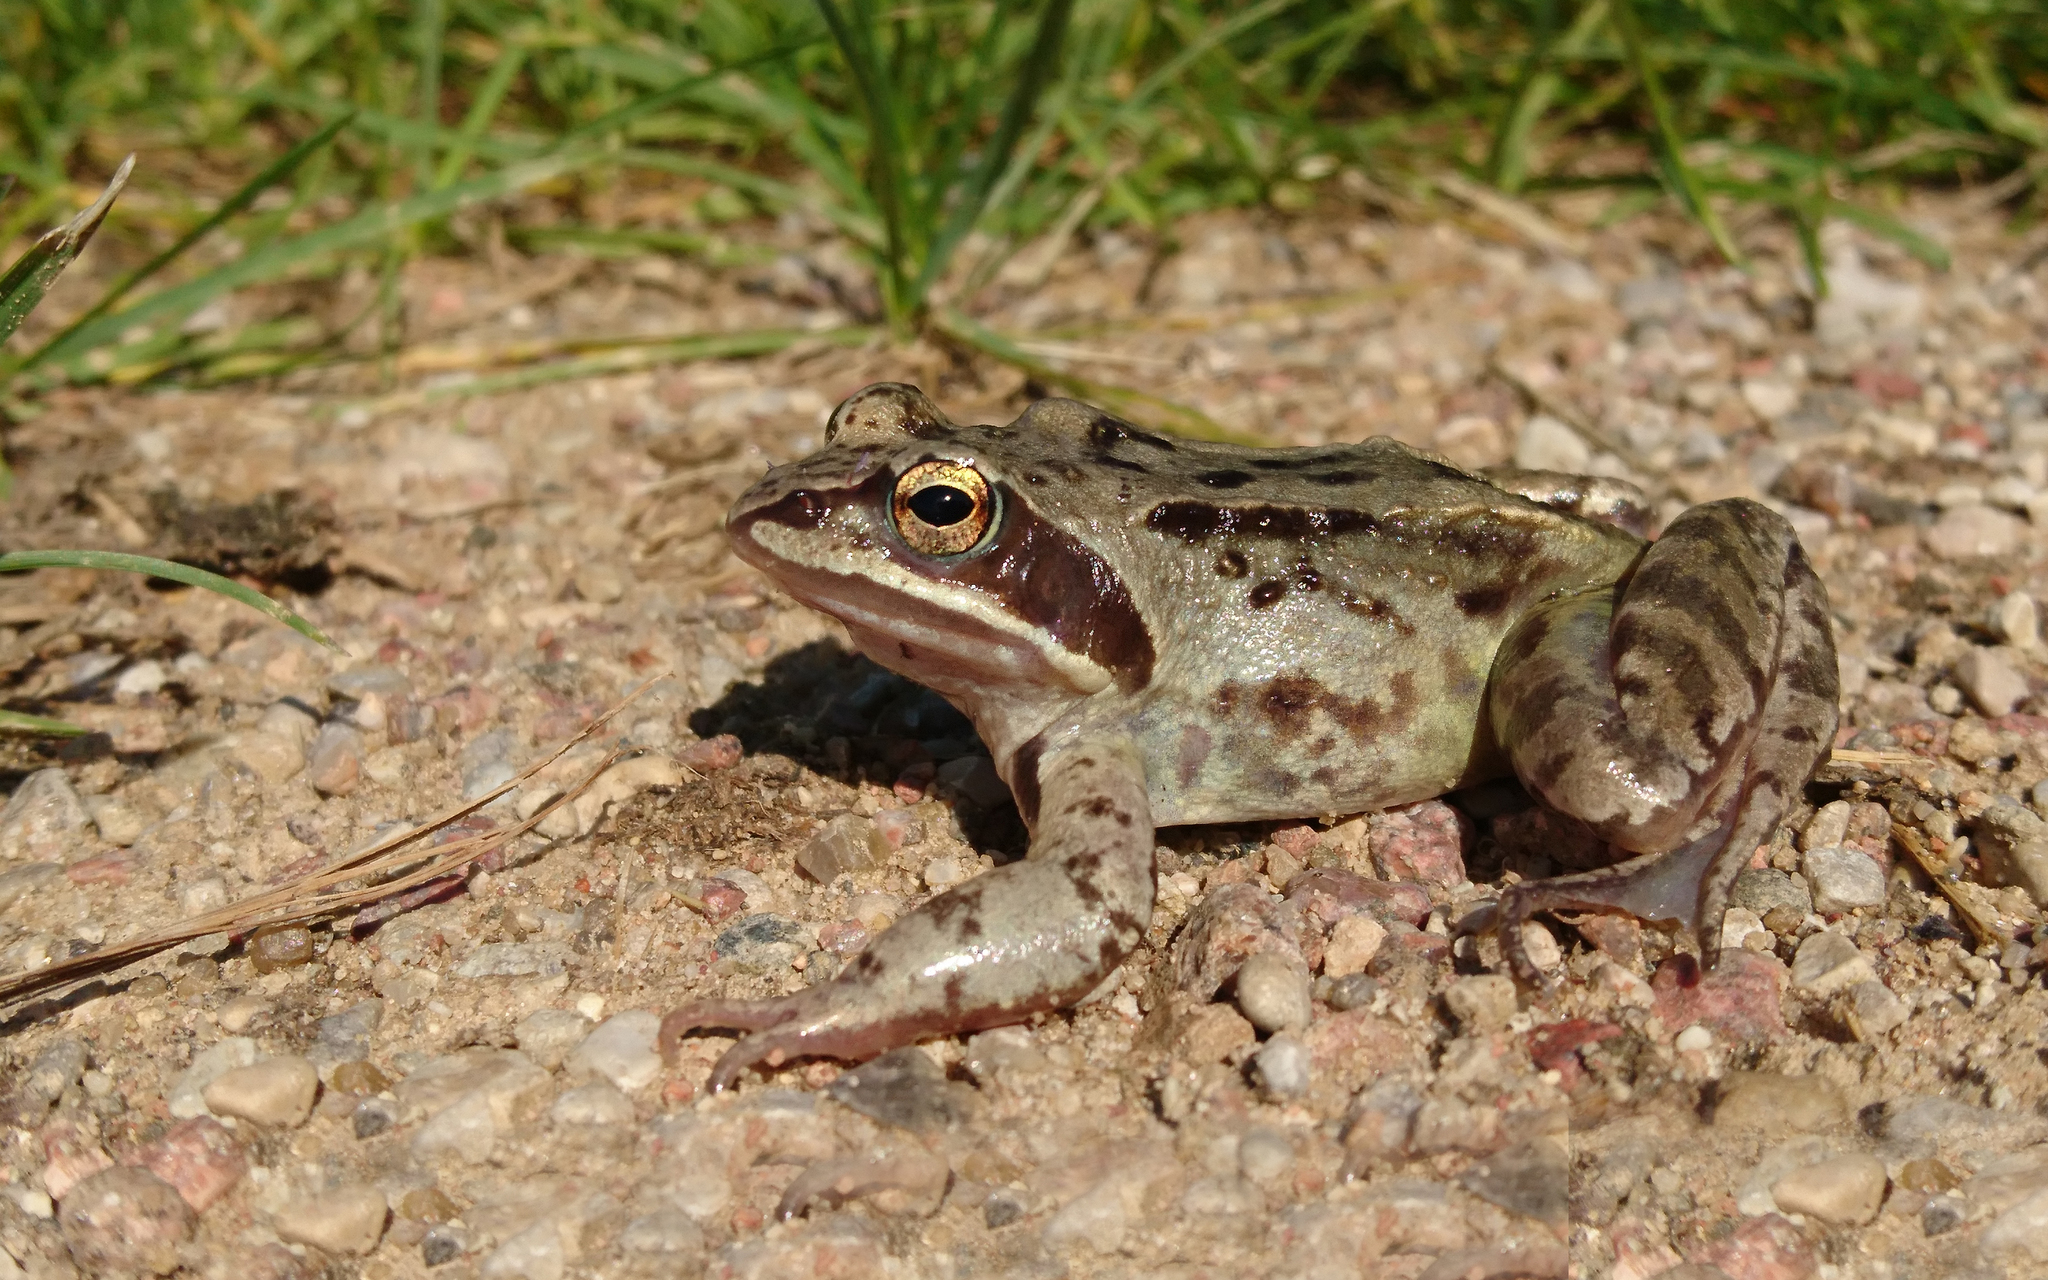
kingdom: Animalia
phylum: Chordata
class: Amphibia
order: Anura
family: Ranidae
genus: Rana
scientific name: Rana arvalis
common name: Moor frog
